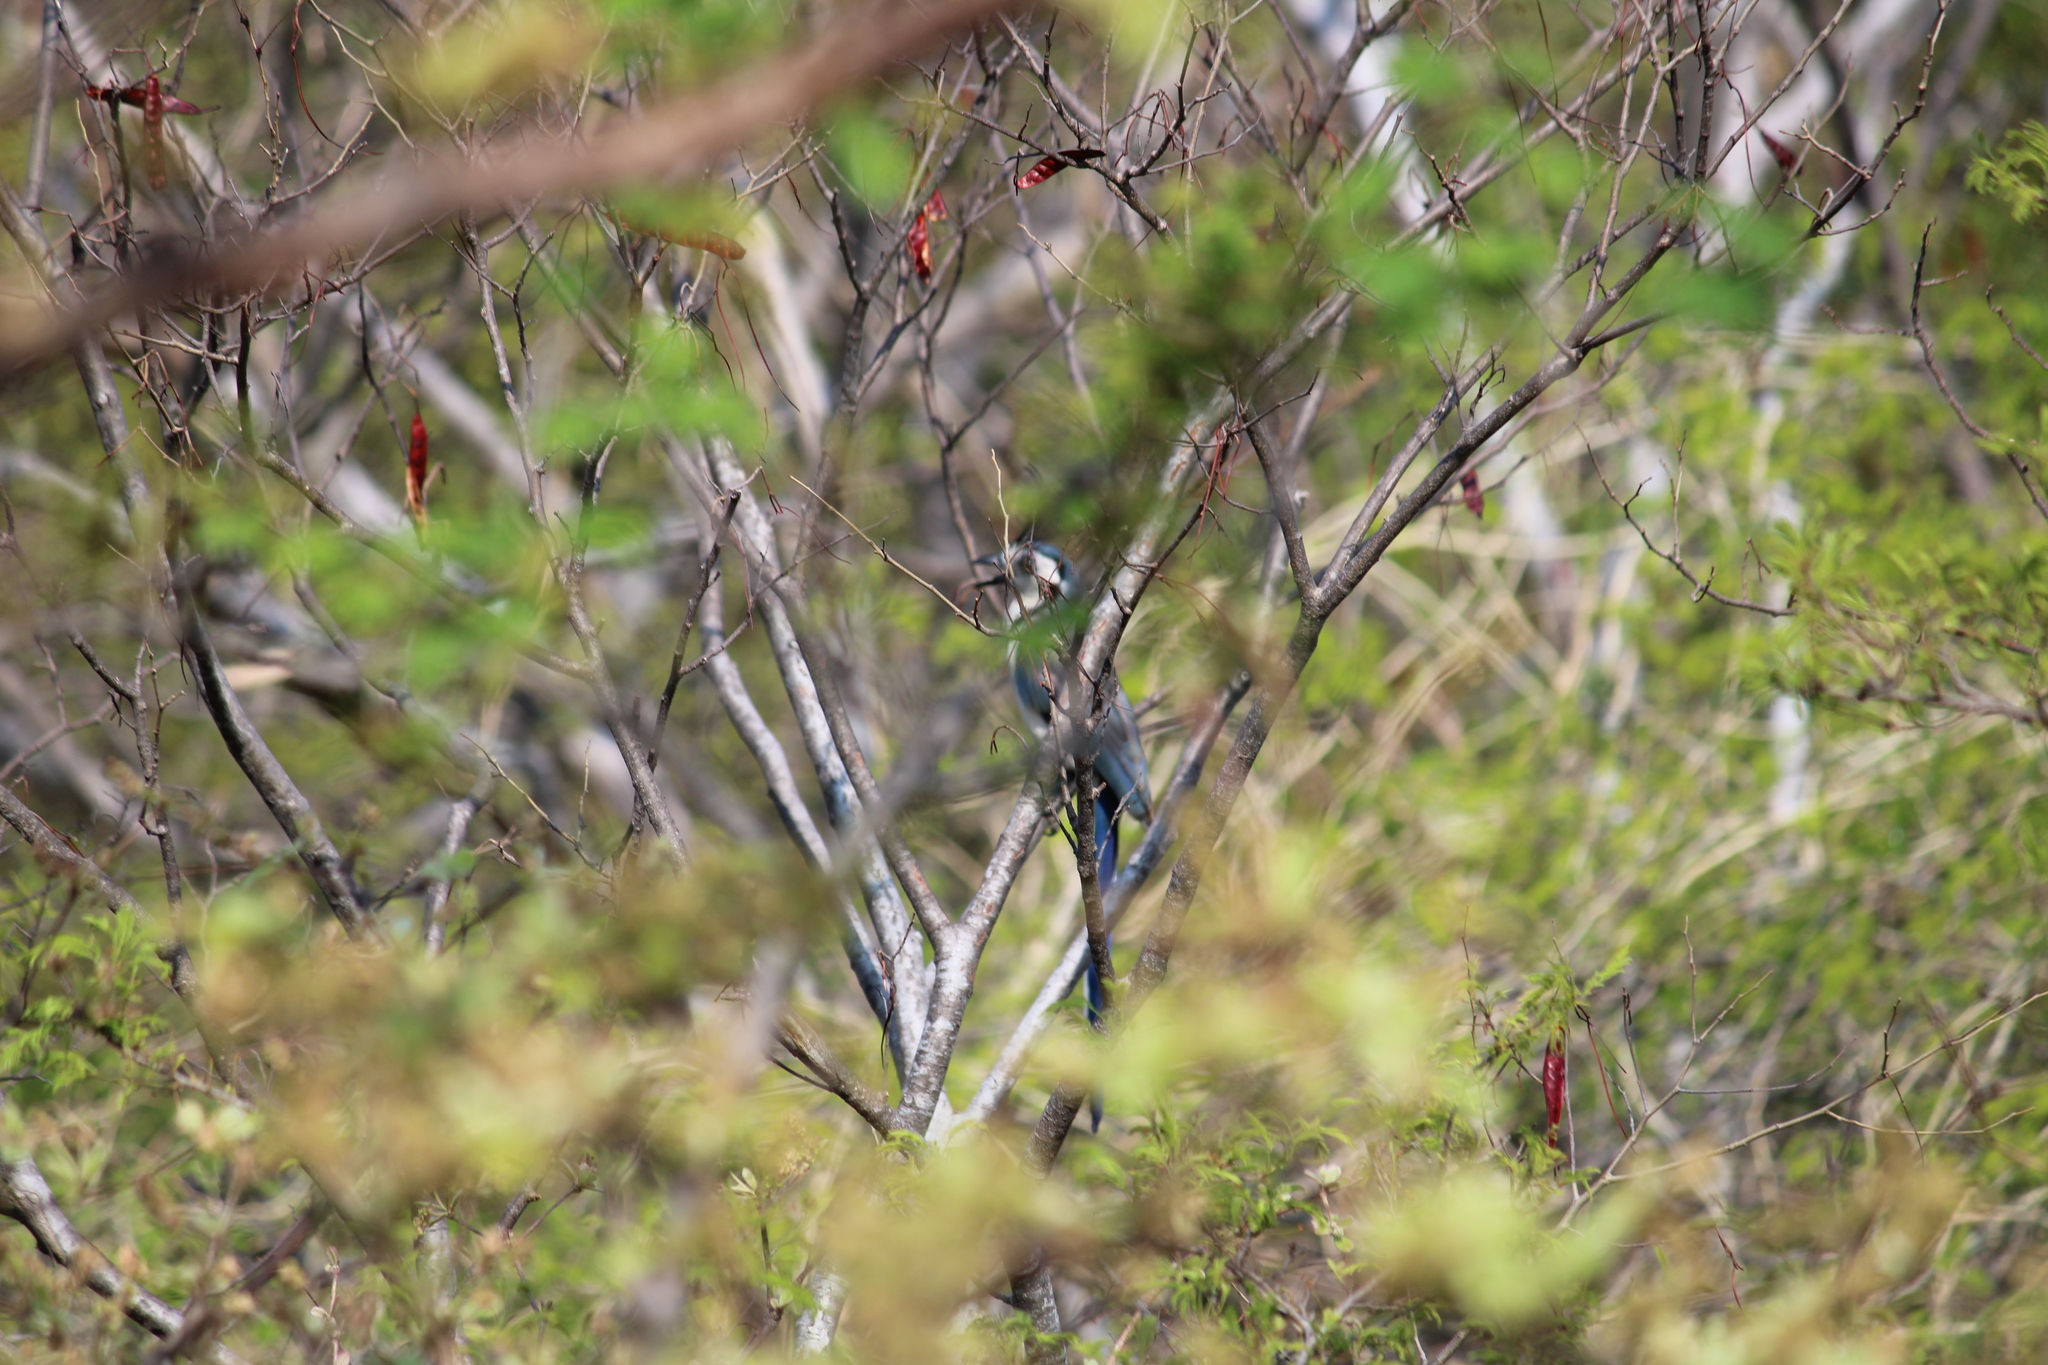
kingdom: Animalia
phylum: Chordata
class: Aves
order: Passeriformes
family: Corvidae
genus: Calocitta
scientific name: Calocitta formosa
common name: White-throated magpie-jay
